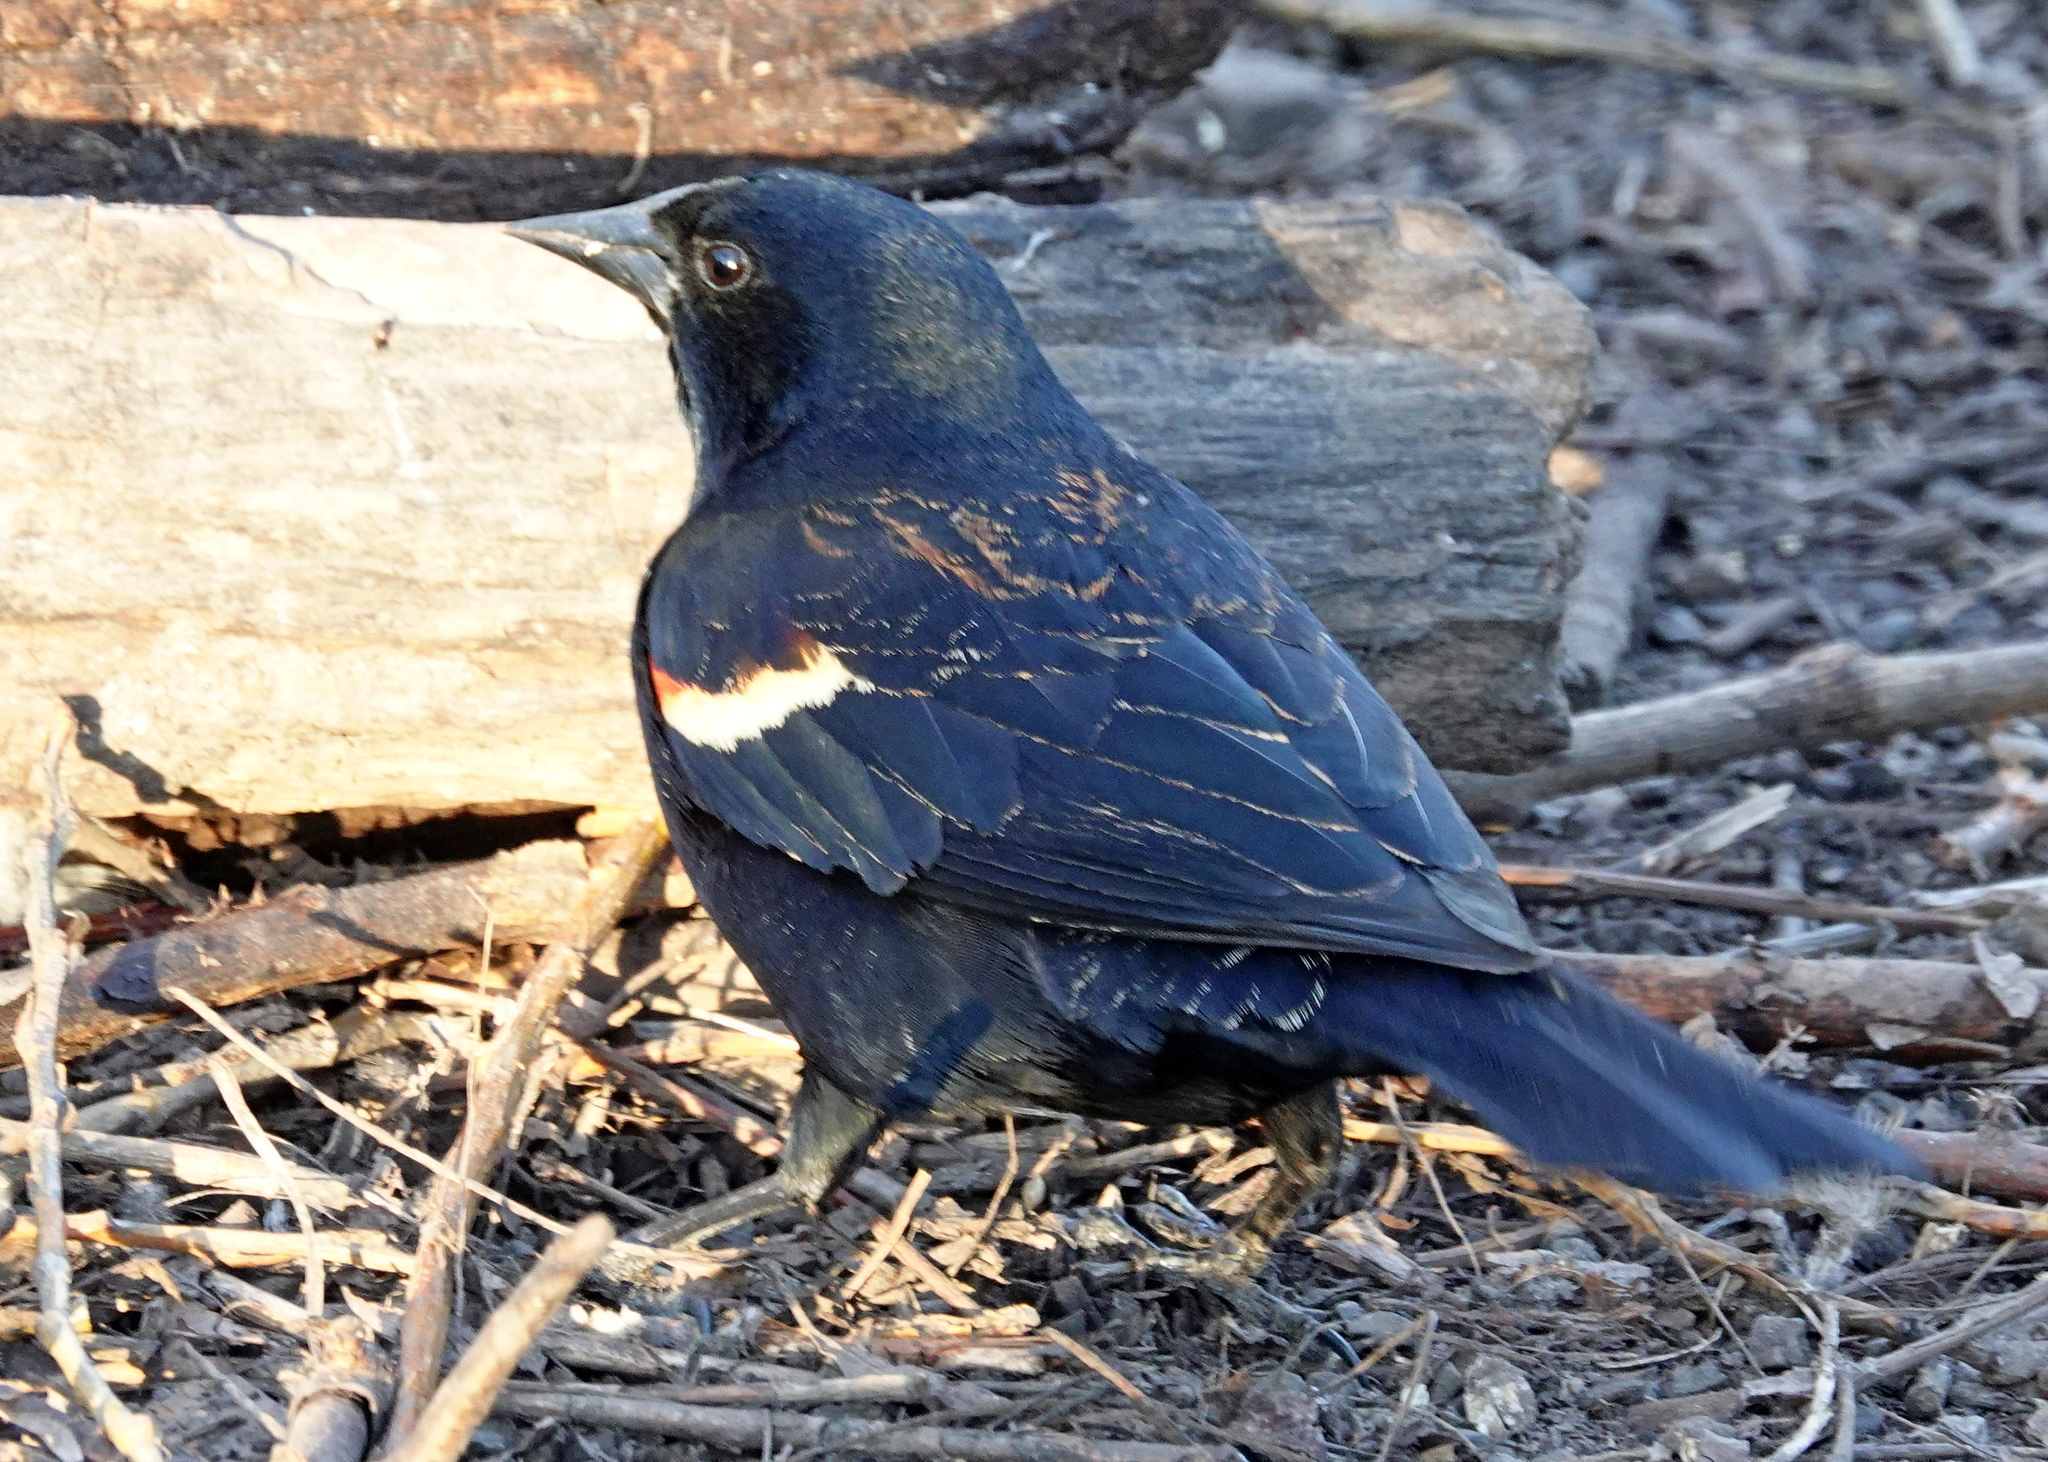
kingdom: Animalia
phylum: Chordata
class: Aves
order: Passeriformes
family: Icteridae
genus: Agelaius
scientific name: Agelaius phoeniceus
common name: Red-winged blackbird
